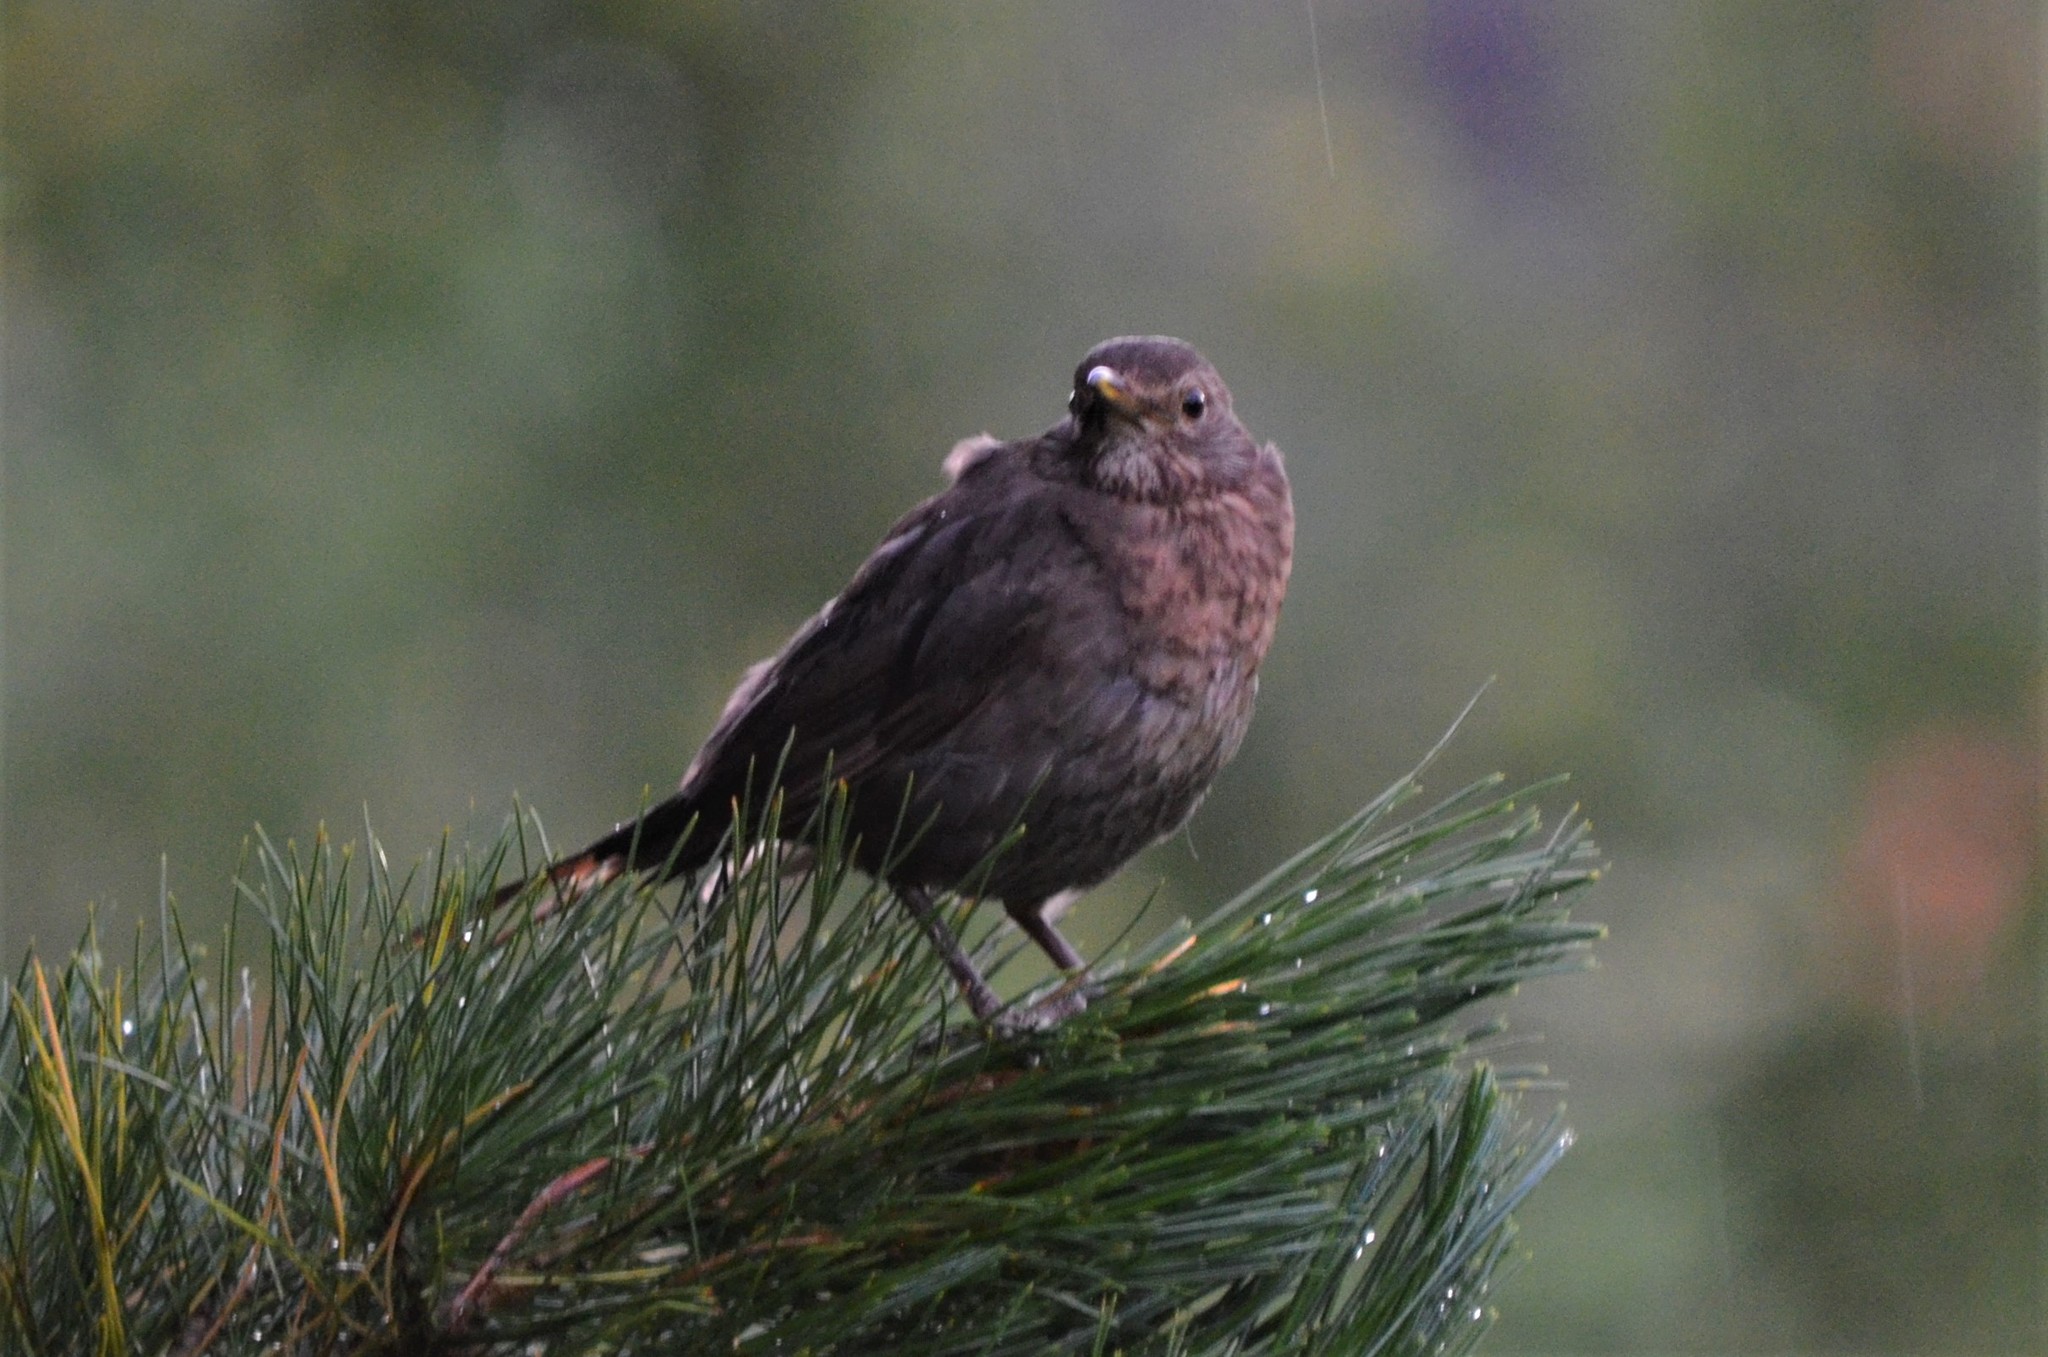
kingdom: Animalia
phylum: Chordata
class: Aves
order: Passeriformes
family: Turdidae
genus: Turdus
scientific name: Turdus merula
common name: Common blackbird
